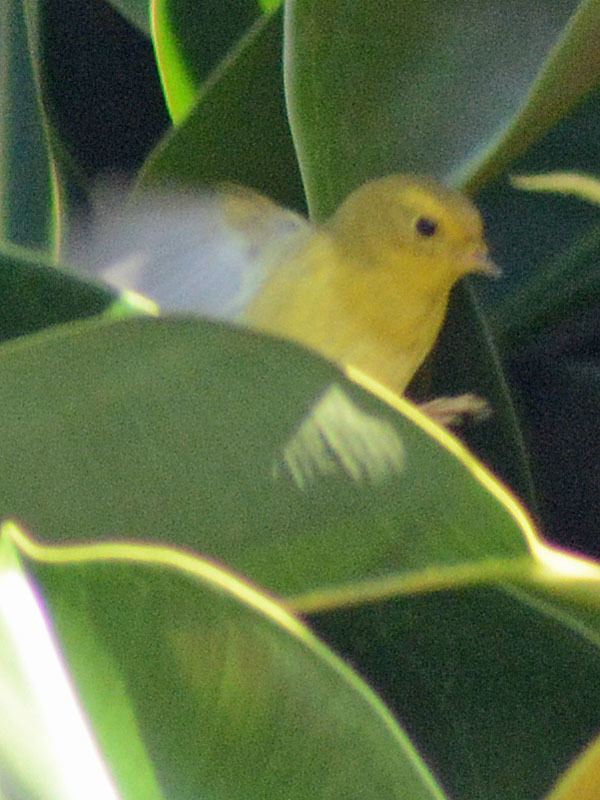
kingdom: Animalia
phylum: Chordata
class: Aves
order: Passeriformes
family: Parulidae
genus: Cardellina
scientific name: Cardellina pusilla
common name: Wilson's warbler
